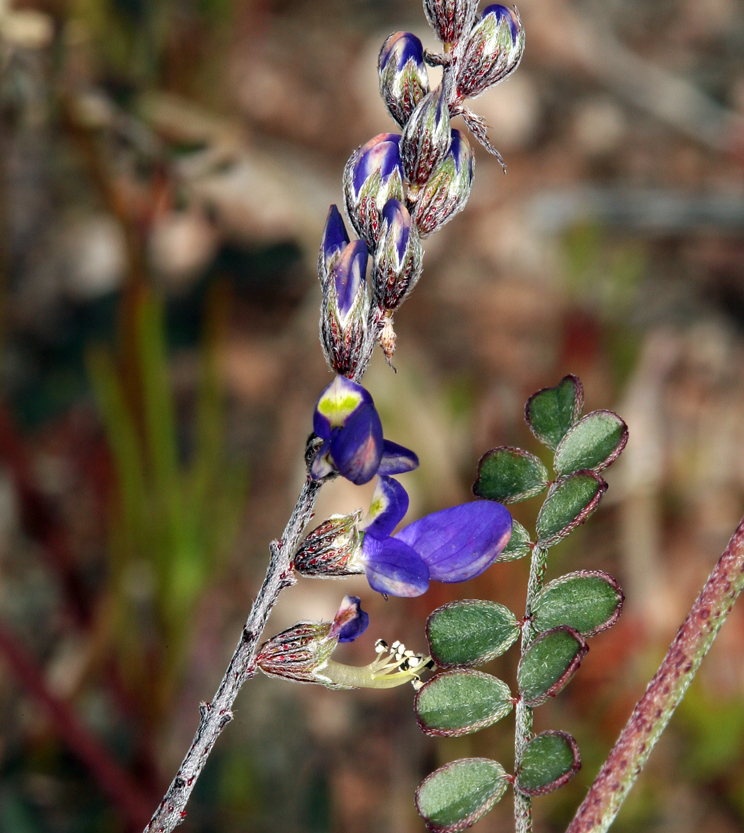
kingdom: Plantae
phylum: Tracheophyta
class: Magnoliopsida
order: Fabales
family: Fabaceae
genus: Marina
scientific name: Marina parryi
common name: Parry's marina
